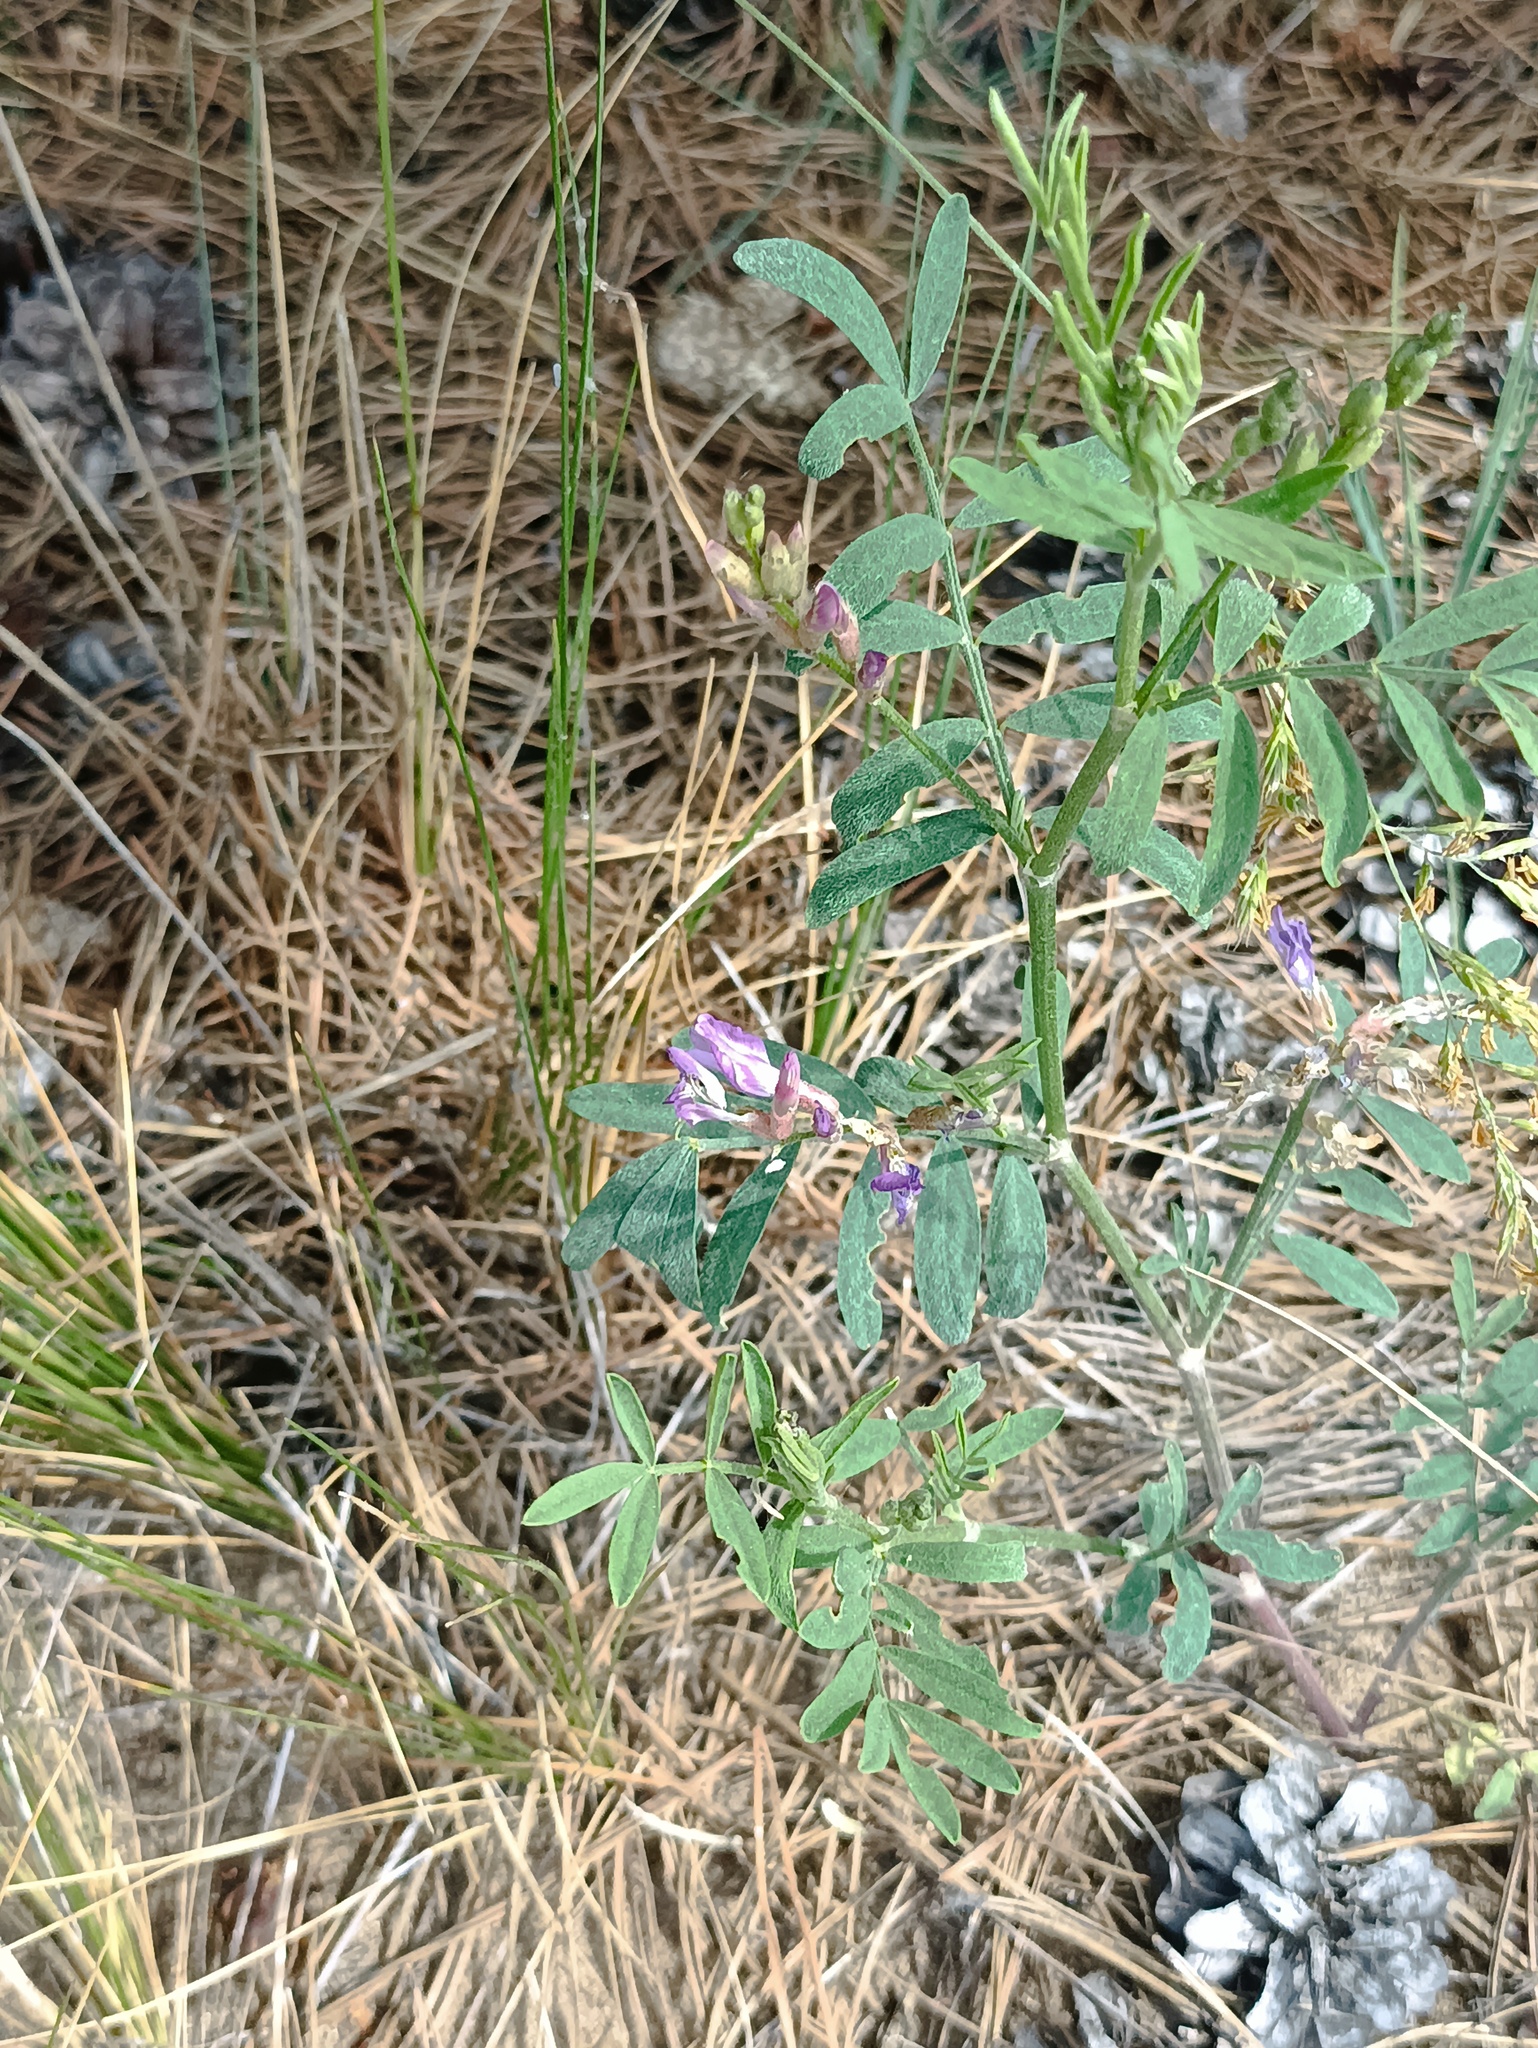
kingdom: Plantae
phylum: Tracheophyta
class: Magnoliopsida
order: Fabales
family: Fabaceae
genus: Astragalus
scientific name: Astragalus arenarius
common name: Arenarious milk-vetch
